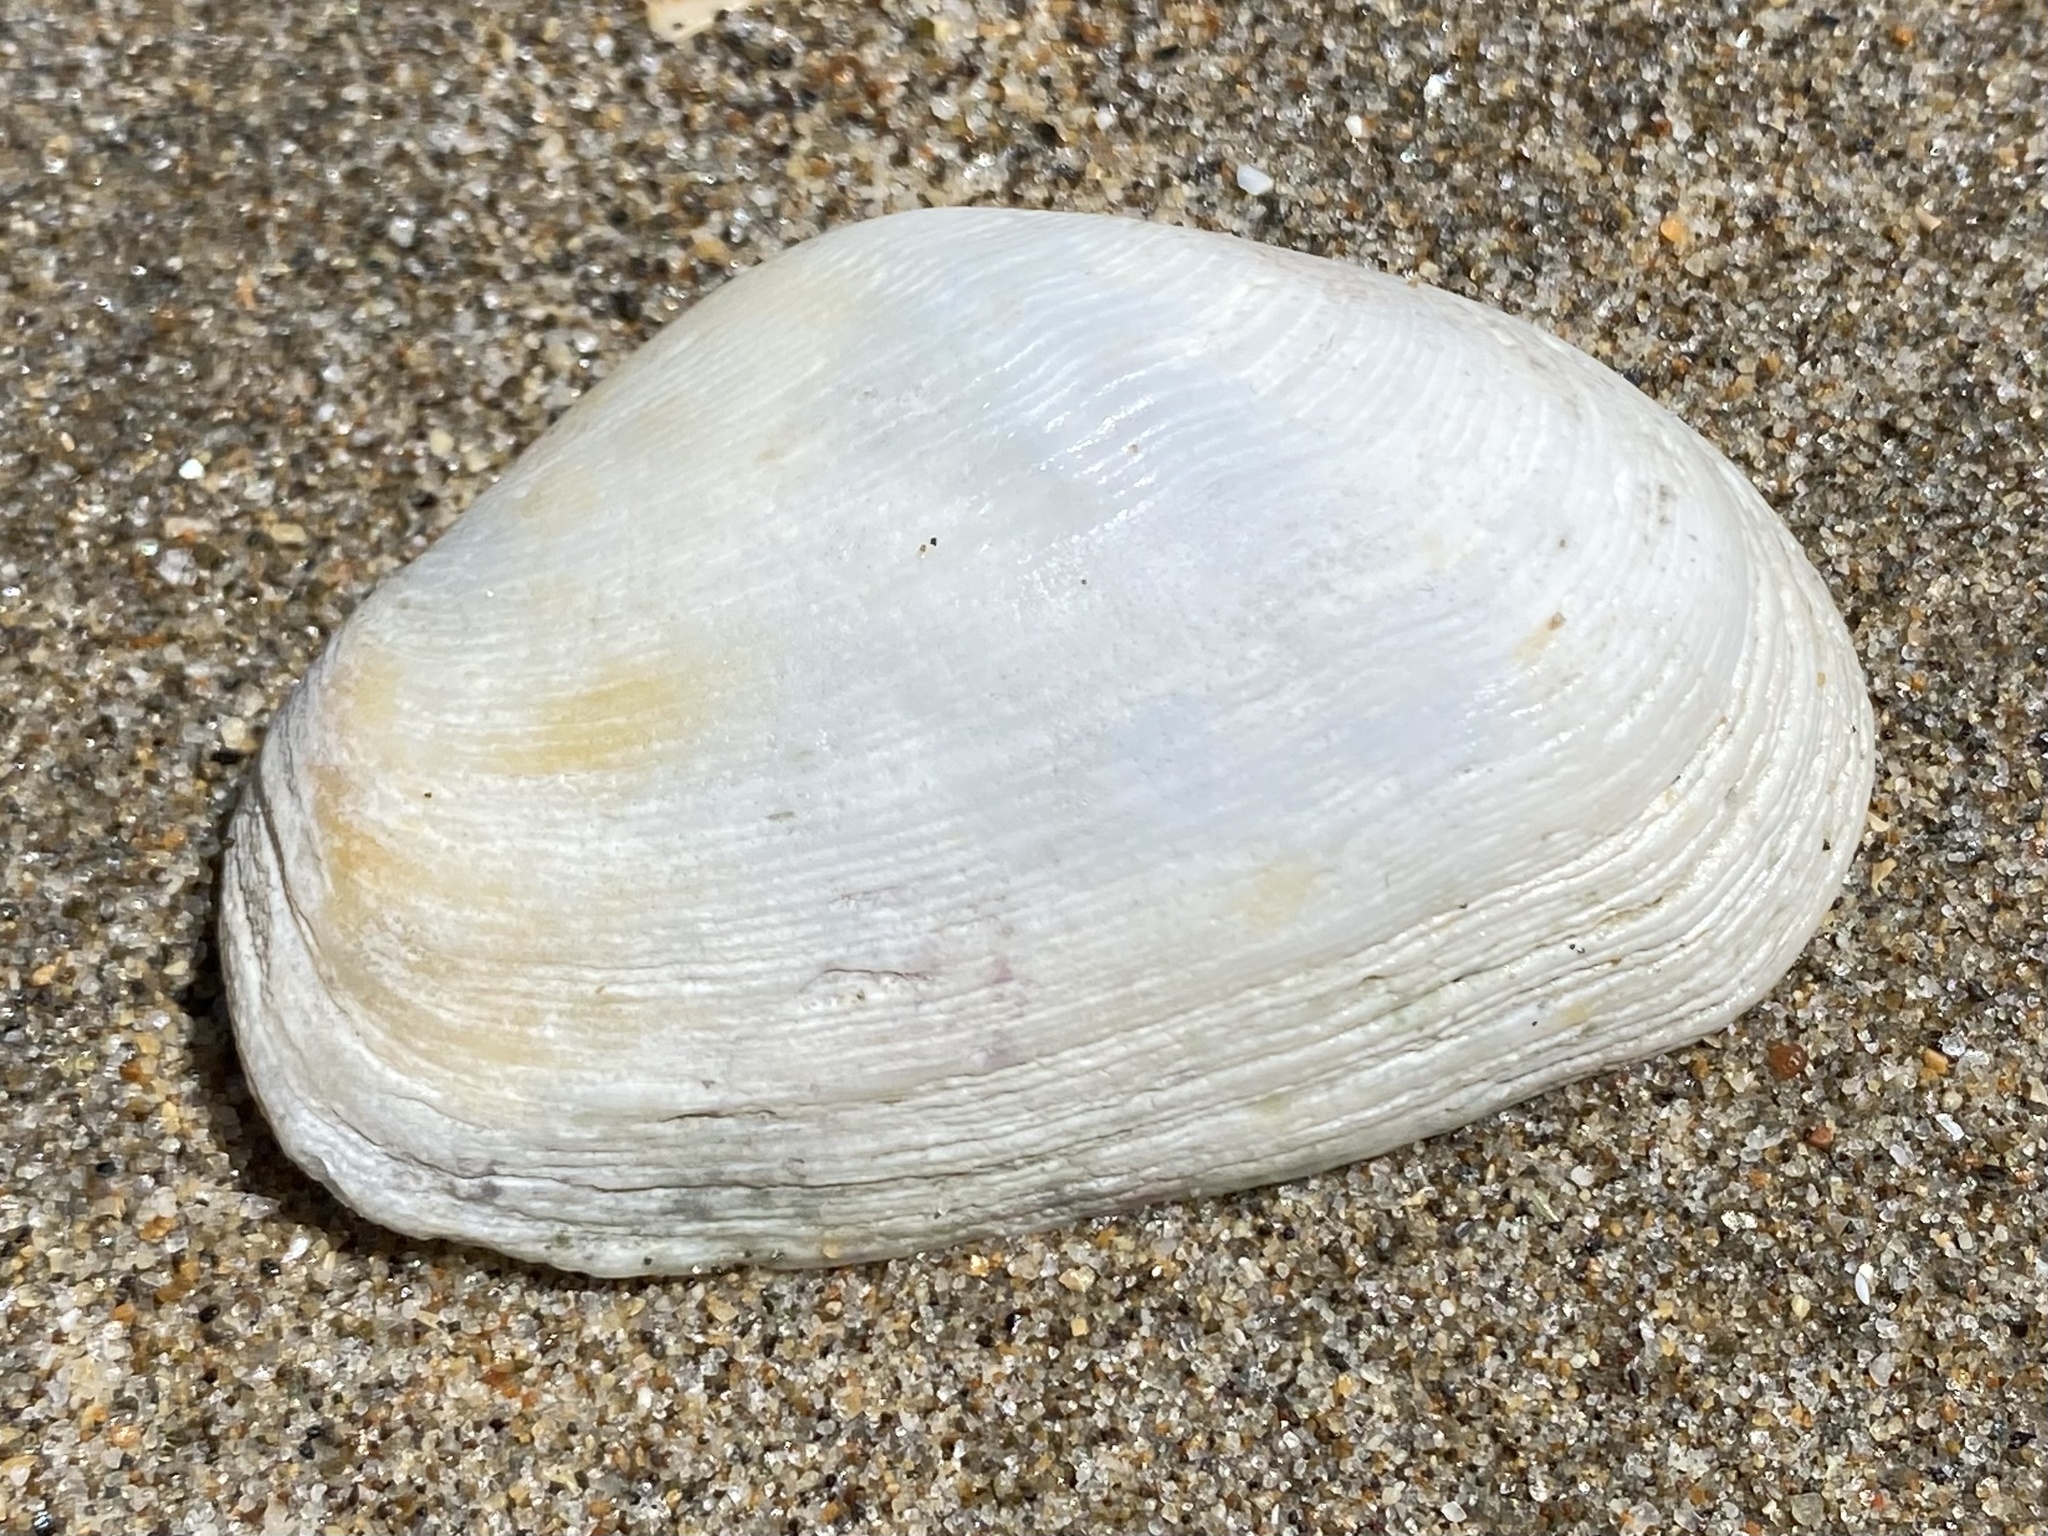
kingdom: Animalia
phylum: Mollusca
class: Bivalvia
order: Myida
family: Myidae
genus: Platyodon
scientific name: Platyodon cancellatus
